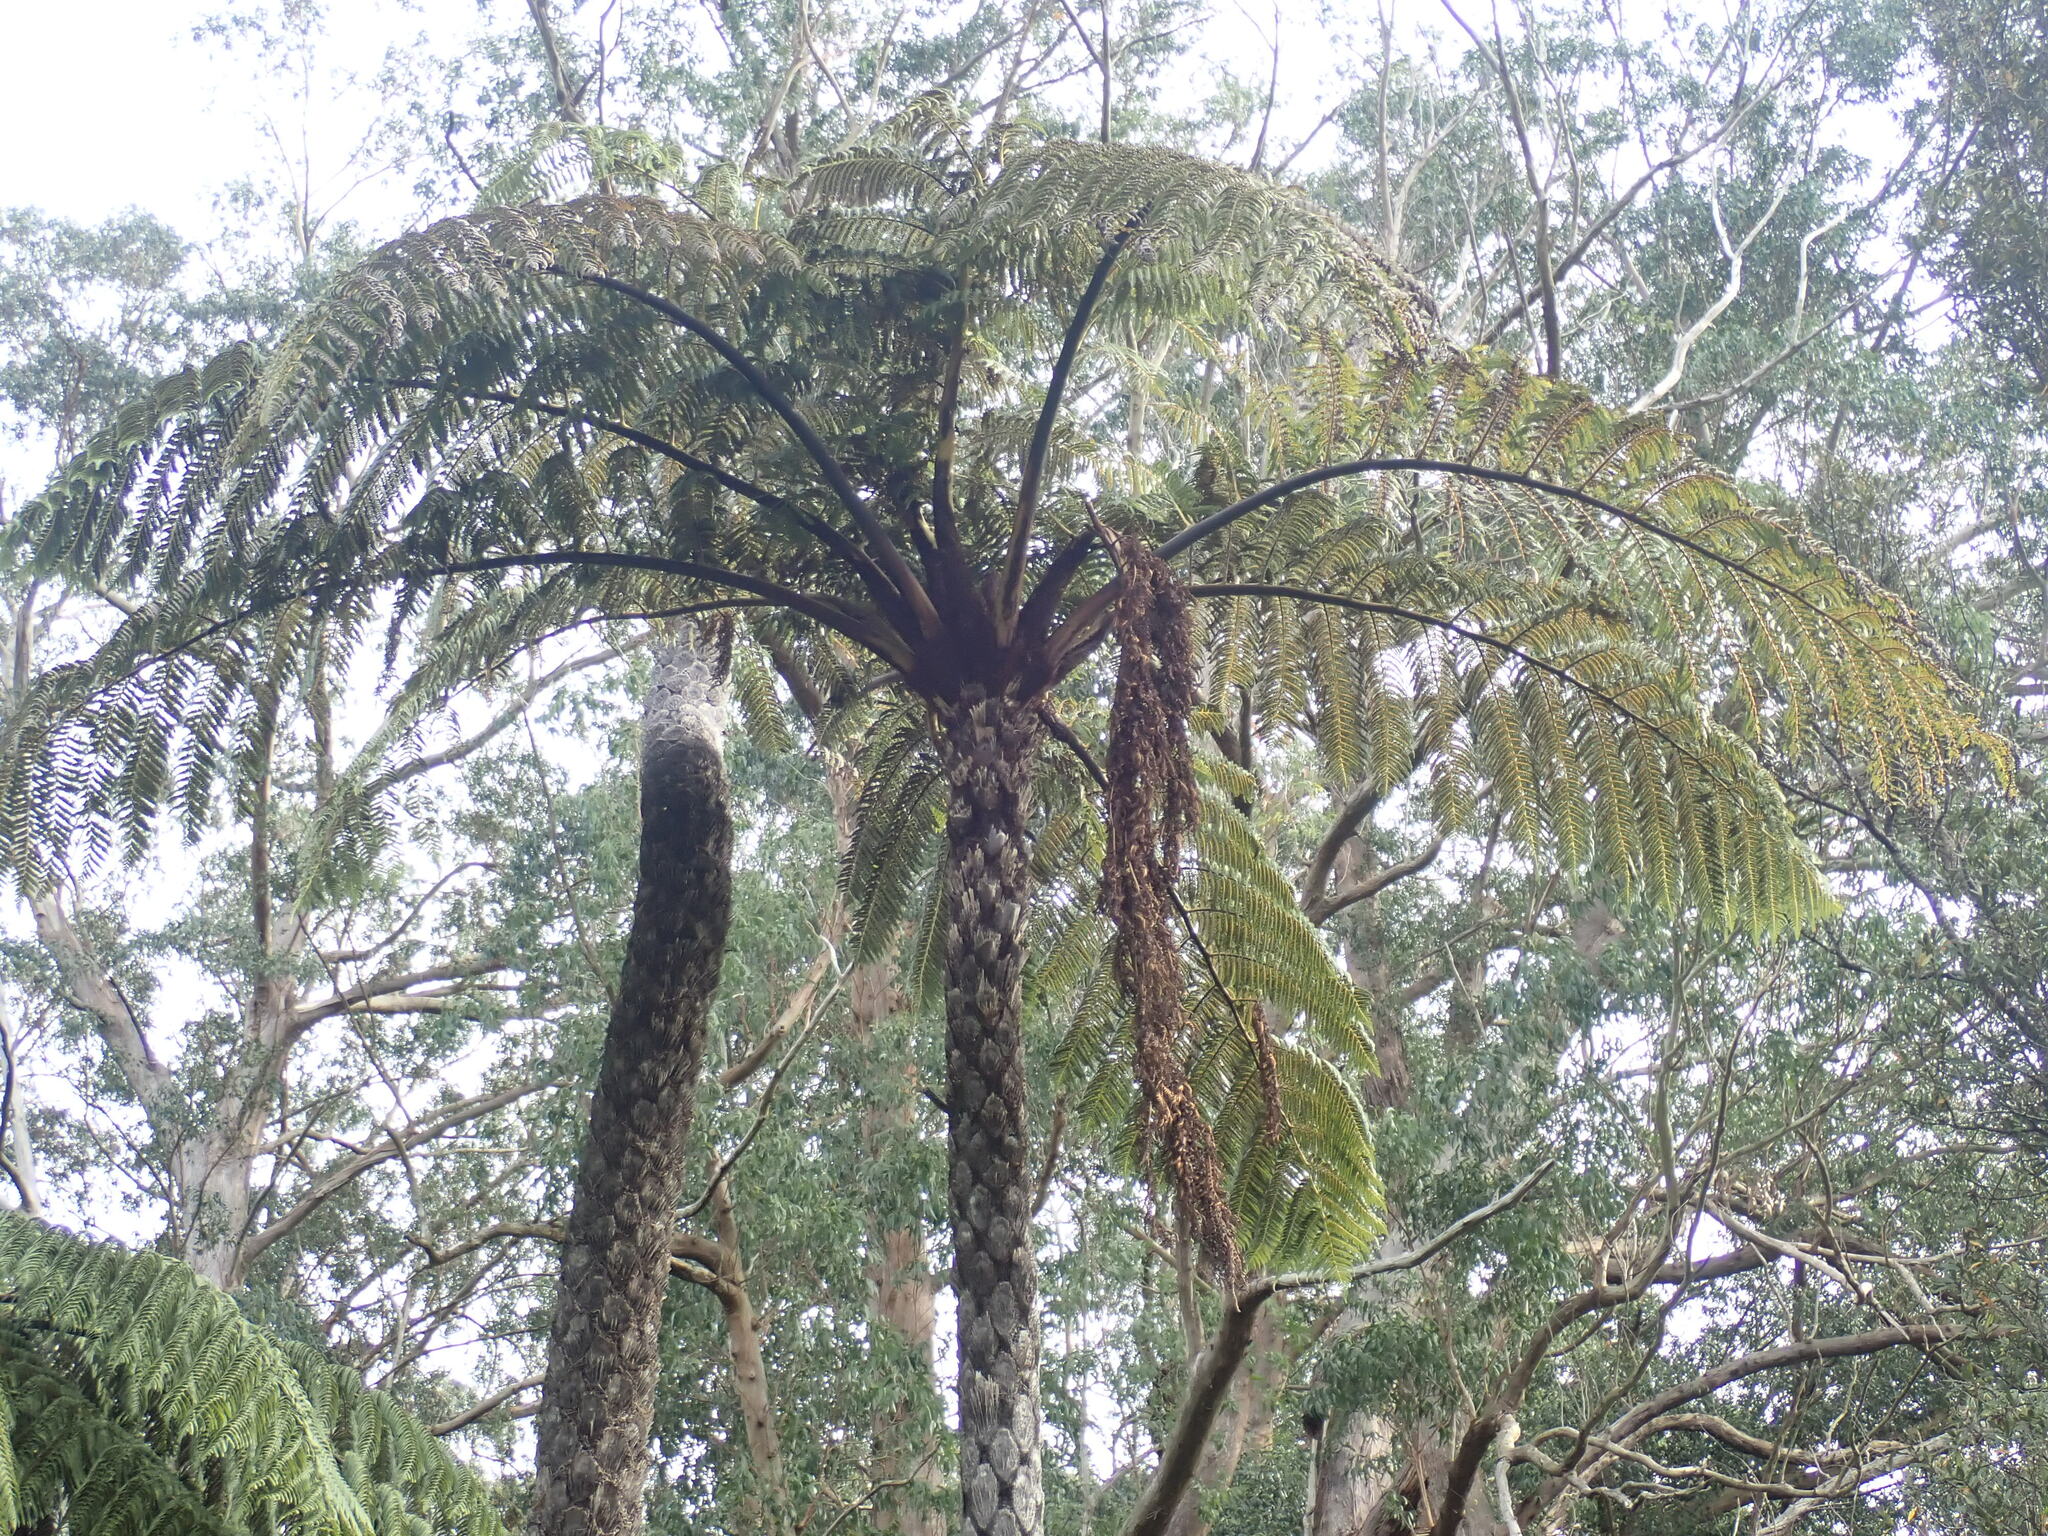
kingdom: Plantae
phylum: Tracheophyta
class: Polypodiopsida
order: Cyatheales
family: Cyatheaceae
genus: Sphaeropteris
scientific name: Sphaeropteris medullaris
